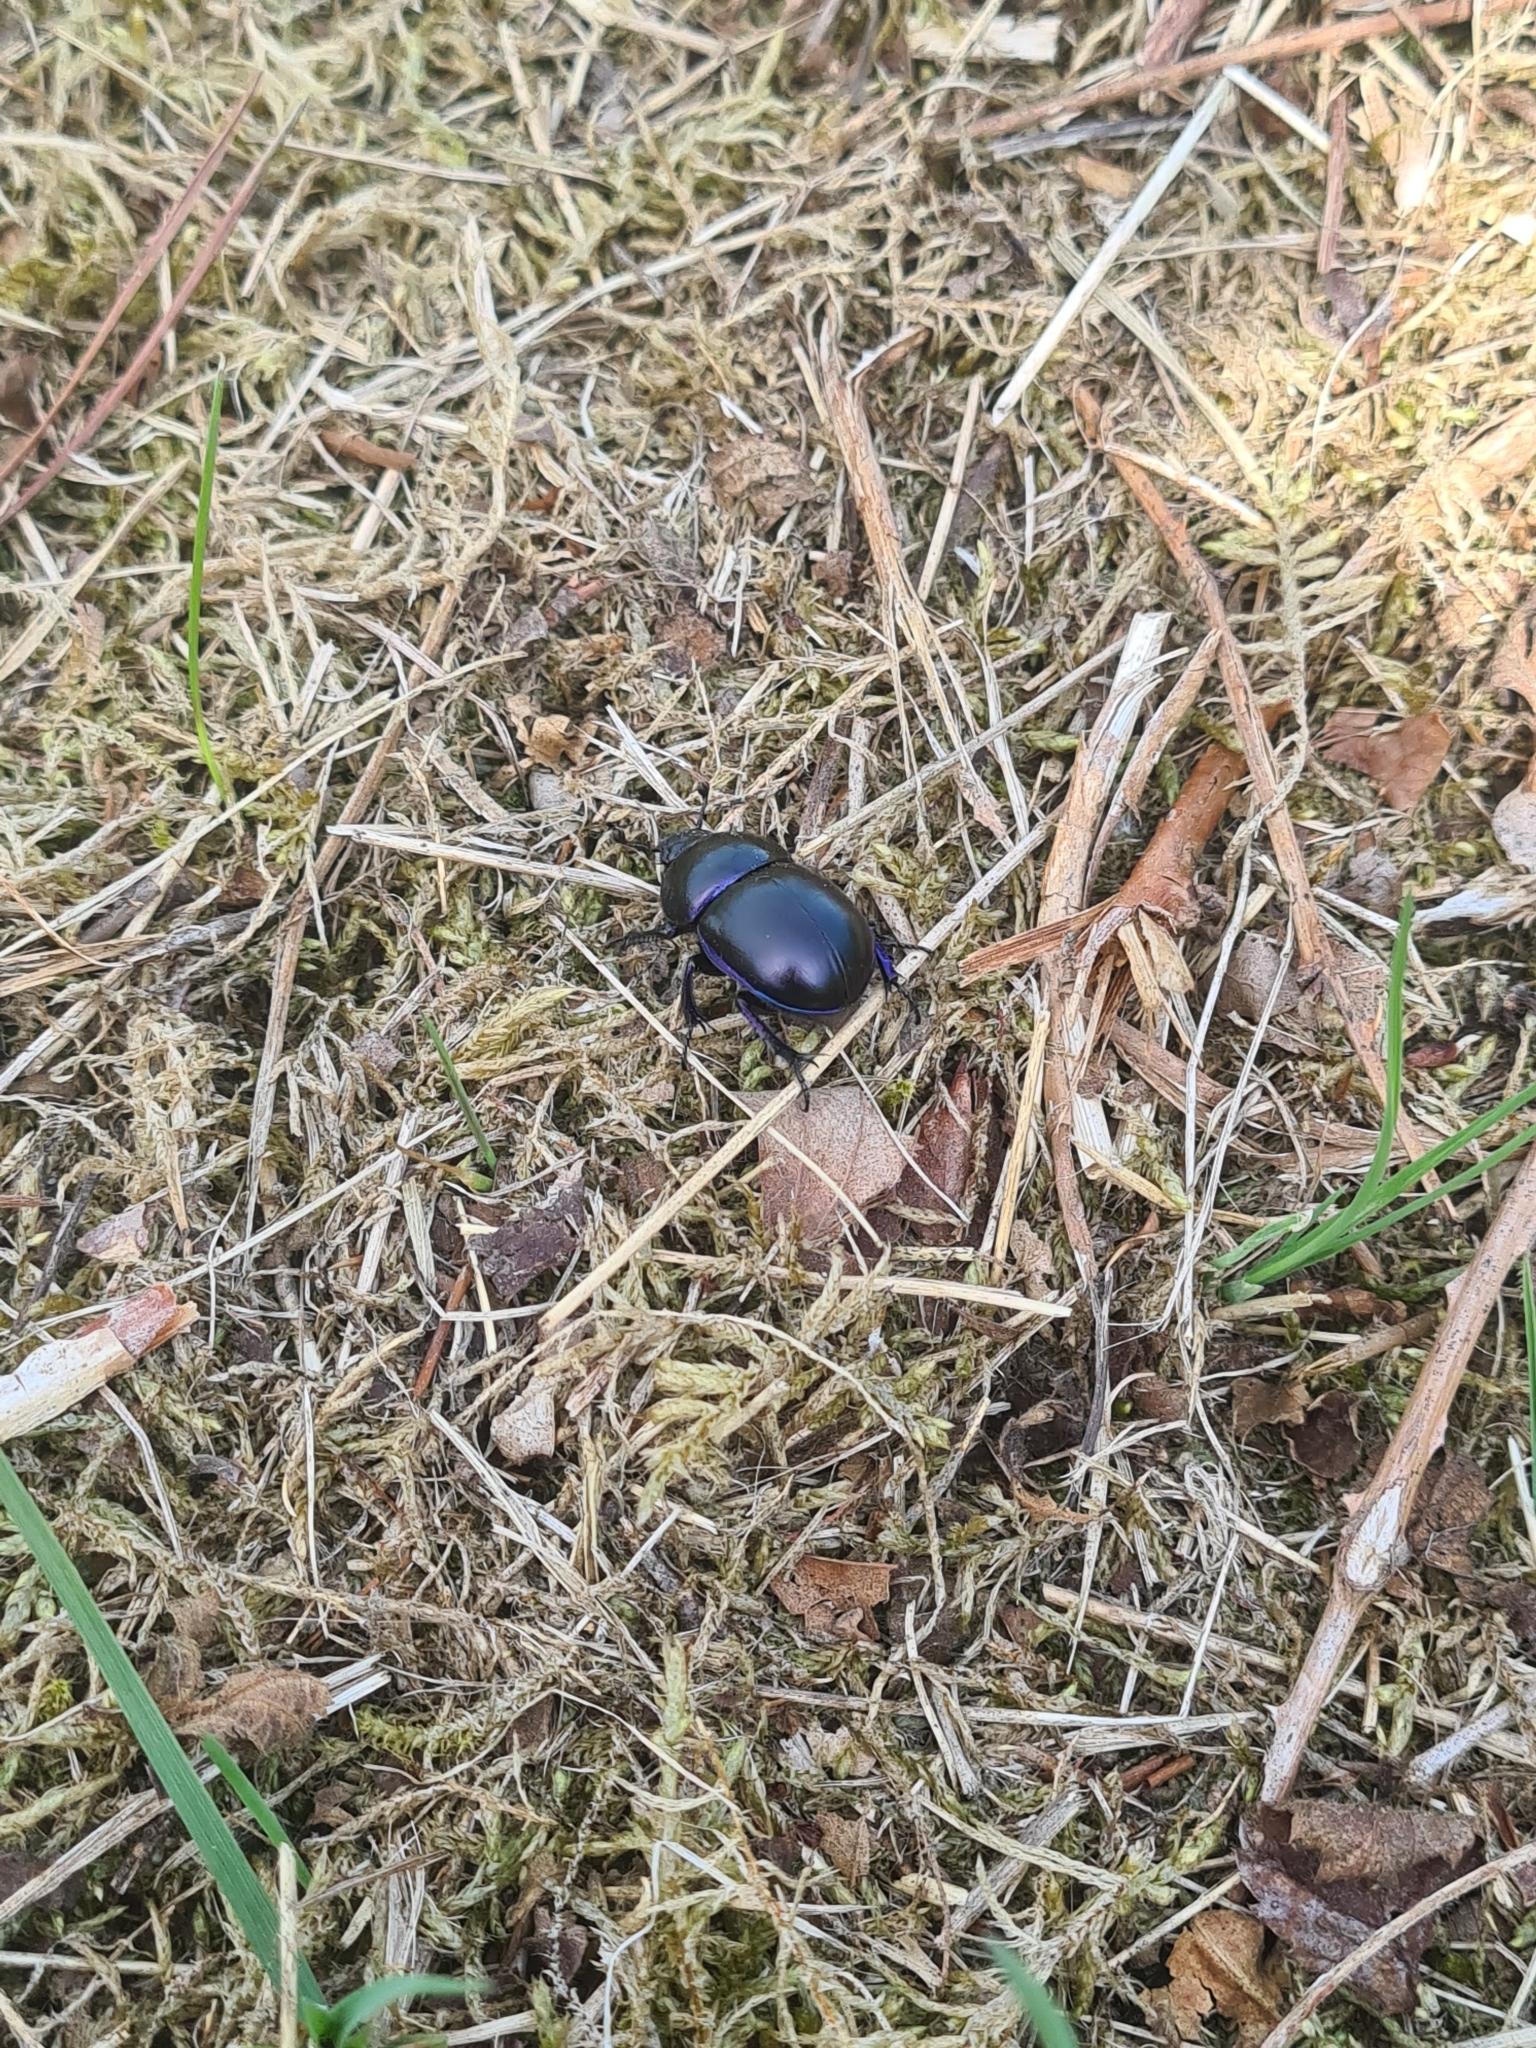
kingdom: Animalia
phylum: Arthropoda
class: Insecta
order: Coleoptera
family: Geotrupidae
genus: Trypocopris
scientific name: Trypocopris vernalis
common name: Spring dumbledor
